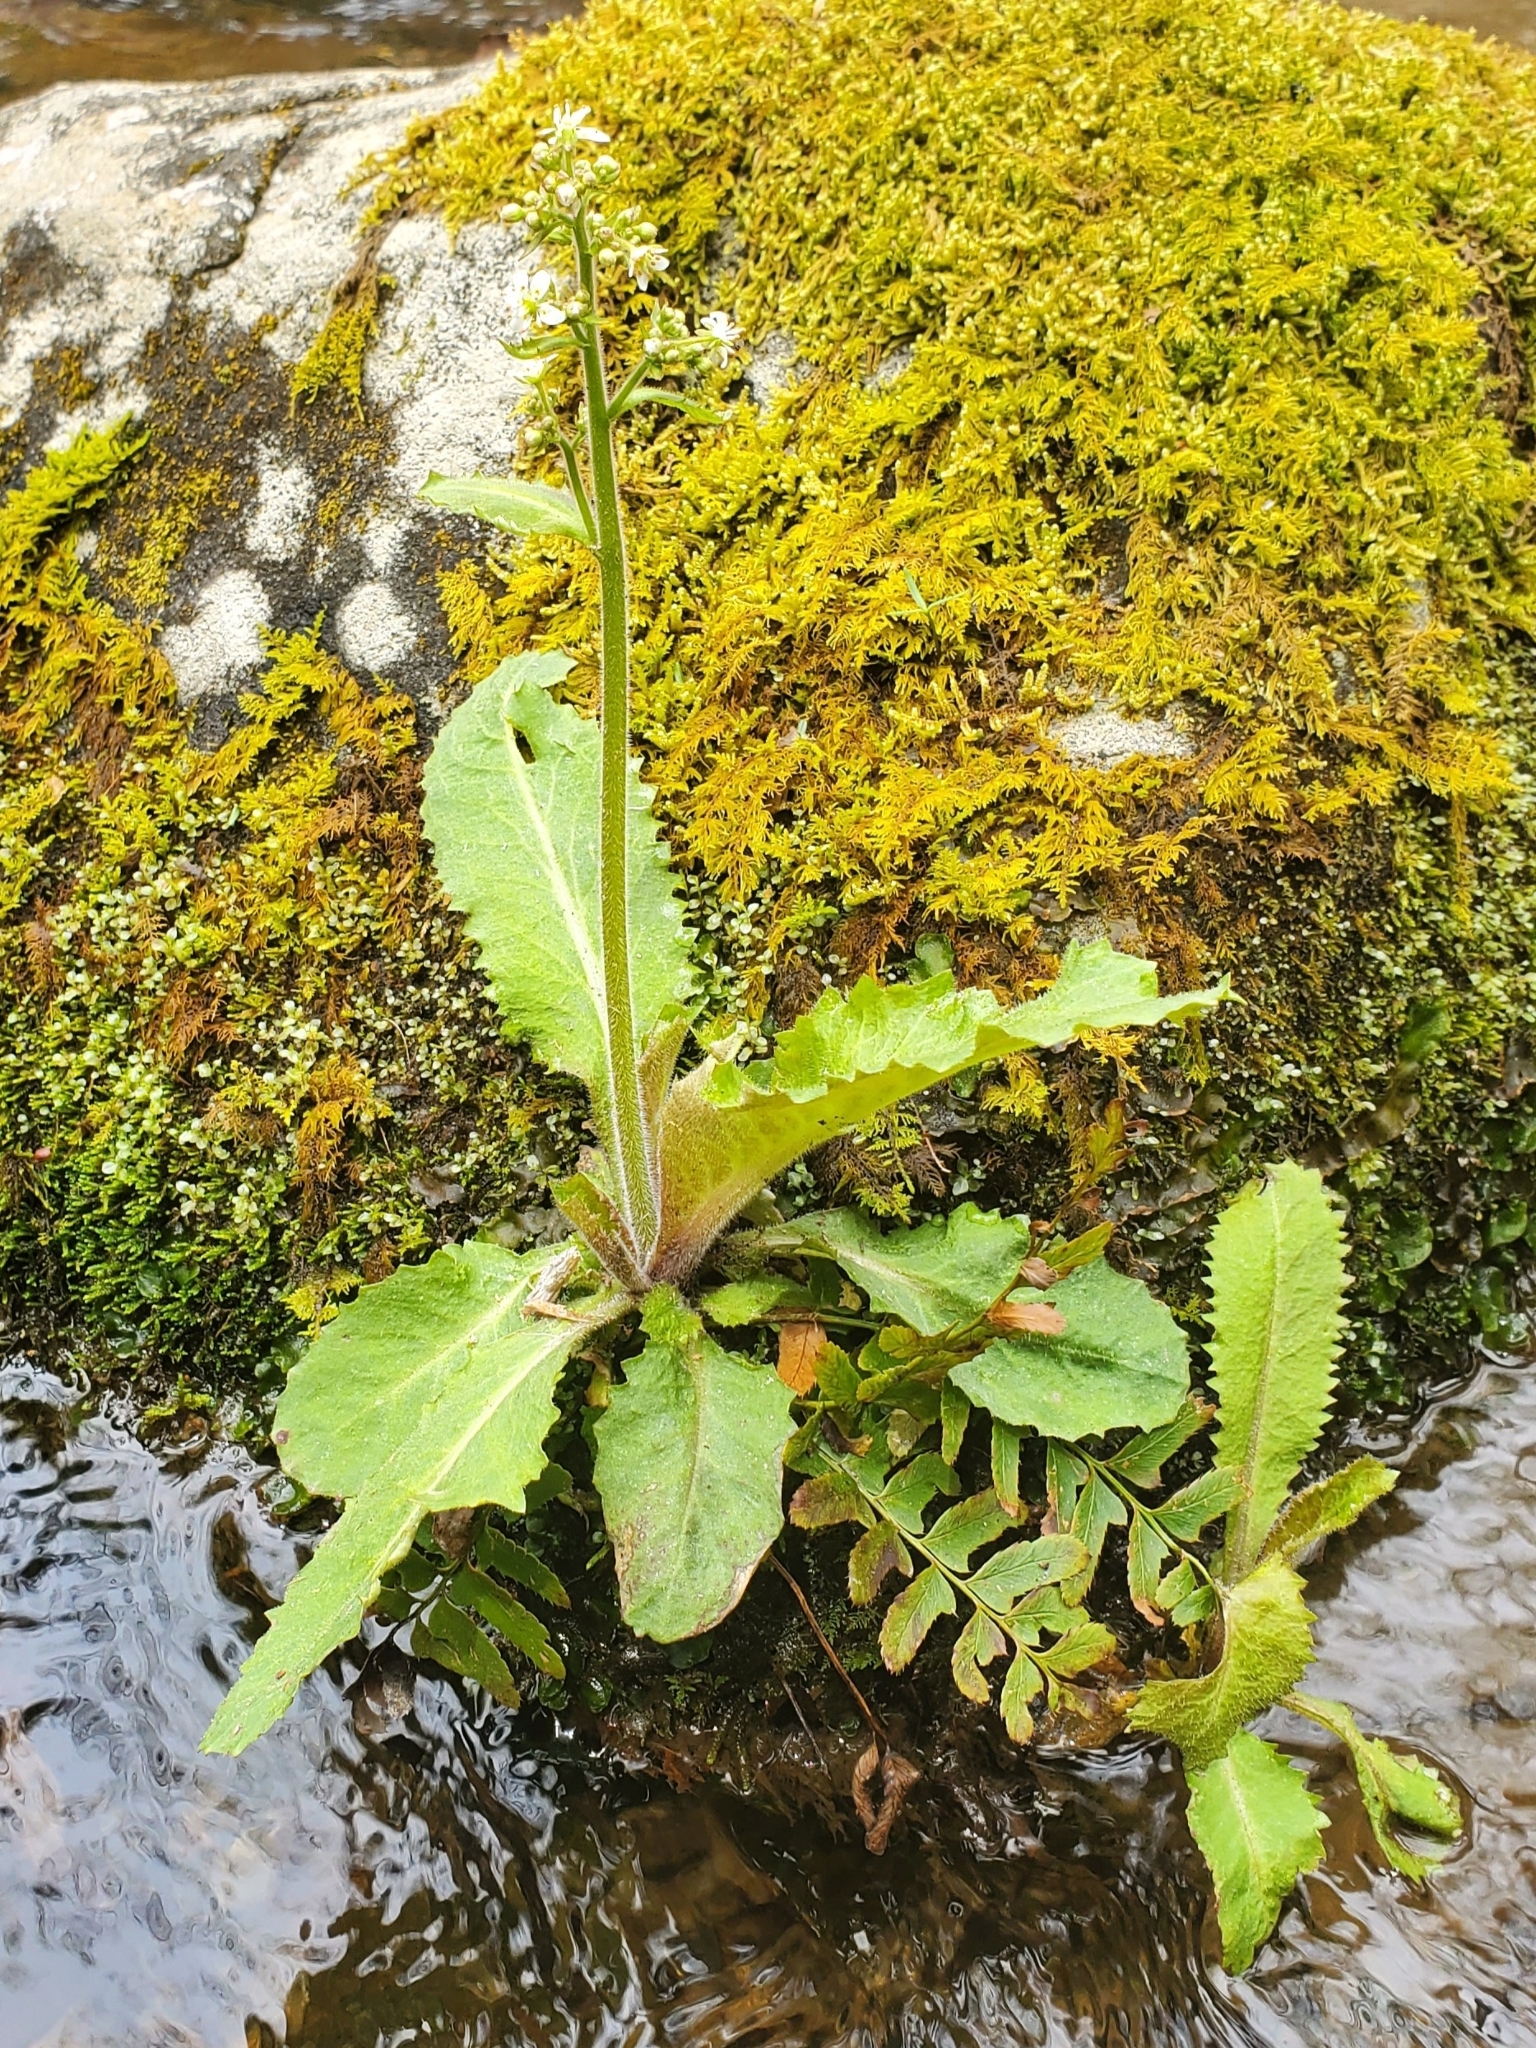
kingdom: Plantae
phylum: Tracheophyta
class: Magnoliopsida
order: Saxifragales
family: Saxifragaceae
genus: Micranthes
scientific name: Micranthes micranthidifolia
